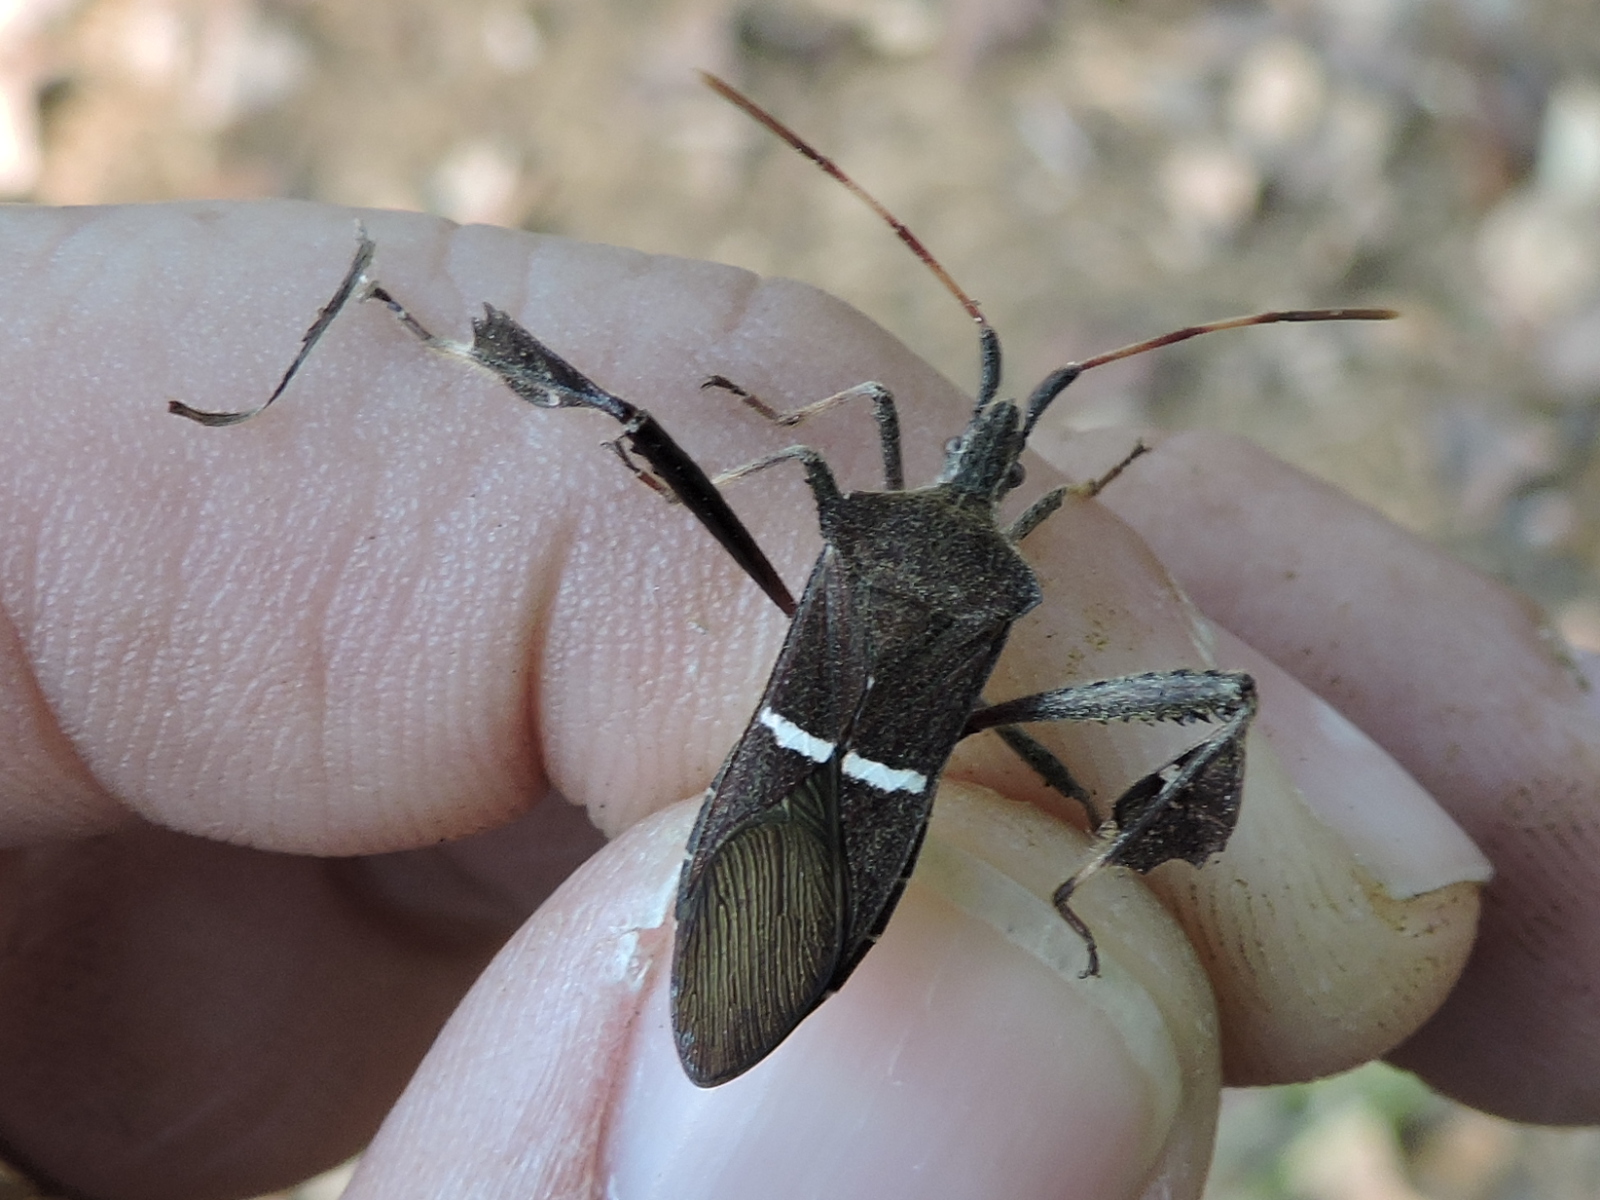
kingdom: Animalia
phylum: Arthropoda
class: Insecta
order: Hemiptera
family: Coreidae
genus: Leptoglossus
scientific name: Leptoglossus phyllopus
